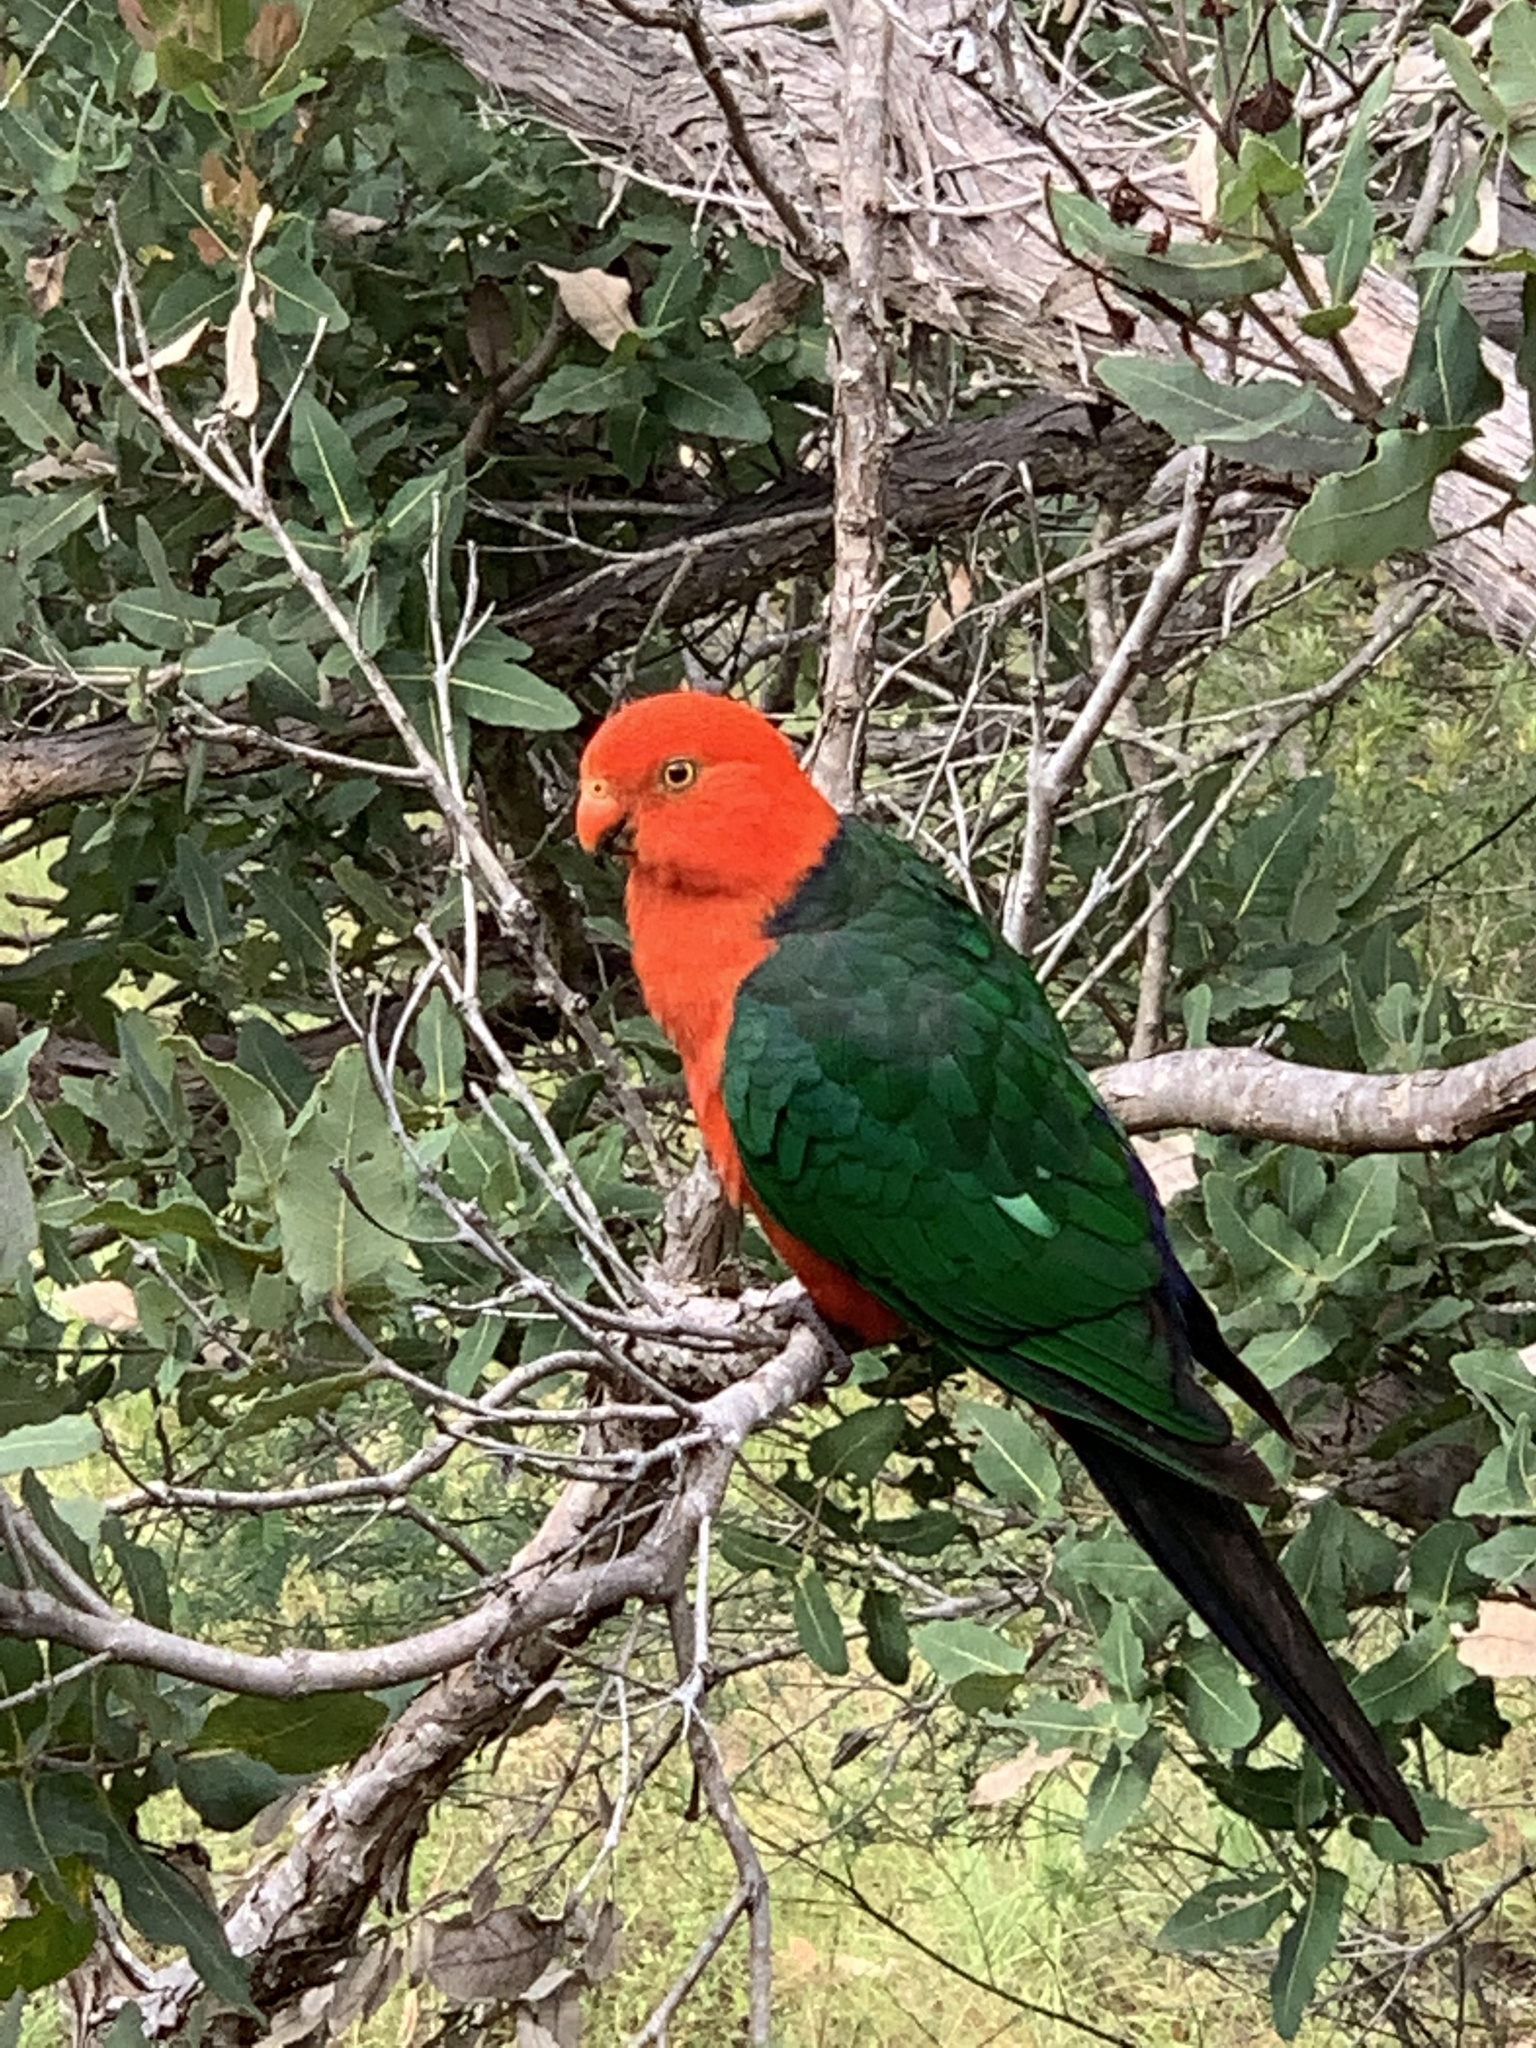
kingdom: Animalia
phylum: Chordata
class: Aves
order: Psittaciformes
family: Psittacidae
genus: Alisterus
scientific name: Alisterus scapularis
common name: Australian king parrot
